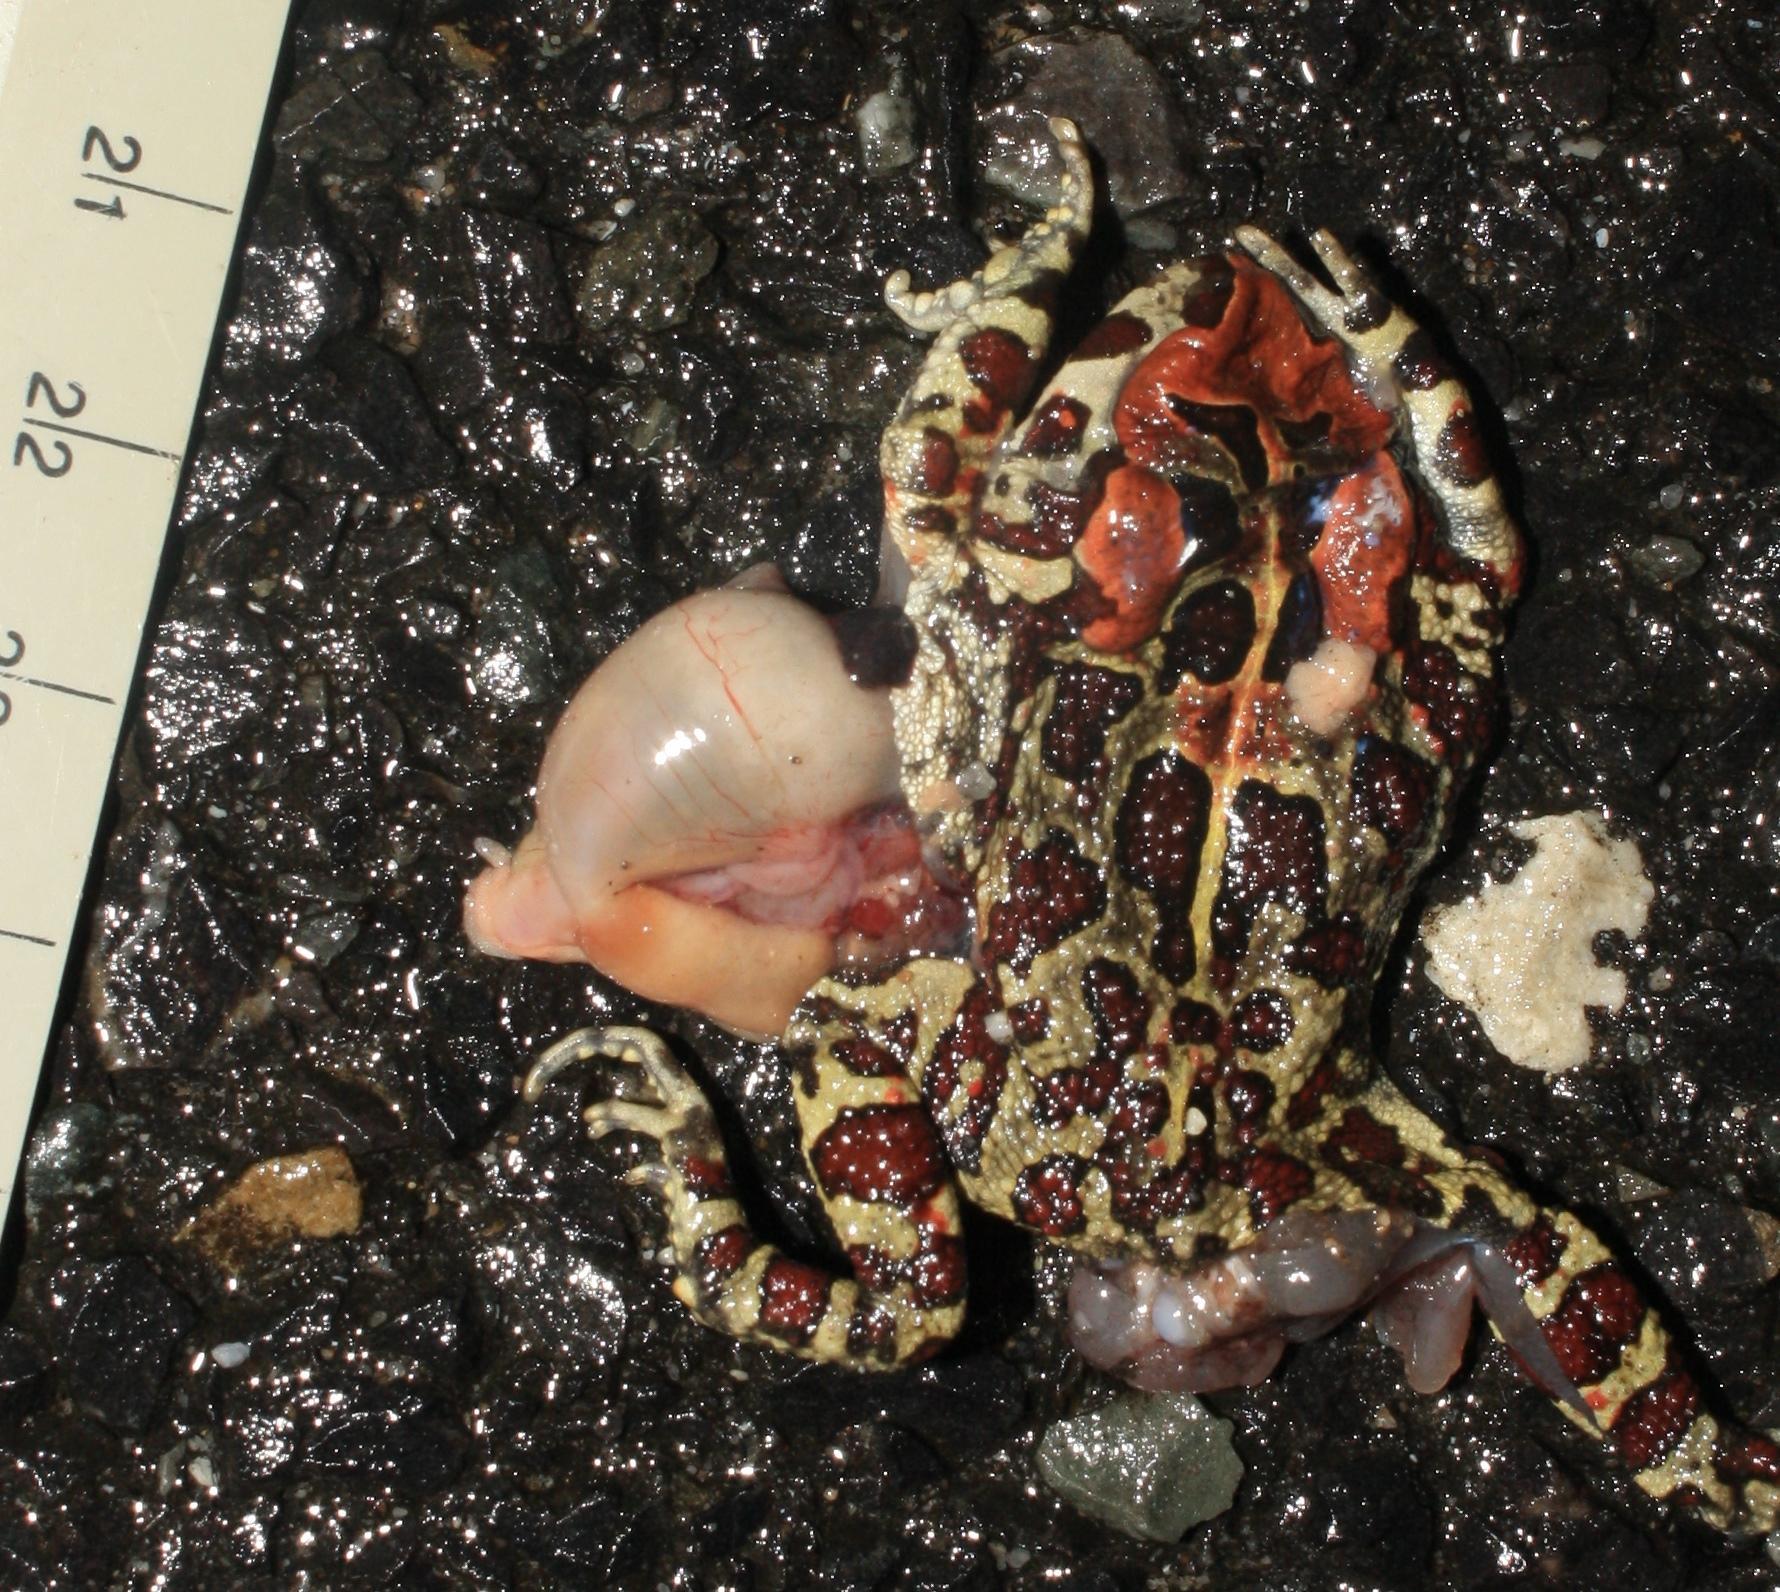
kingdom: Animalia
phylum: Chordata
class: Amphibia
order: Anura
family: Bufonidae
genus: Sclerophrys
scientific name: Sclerophrys pantherina
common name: Panther toad
